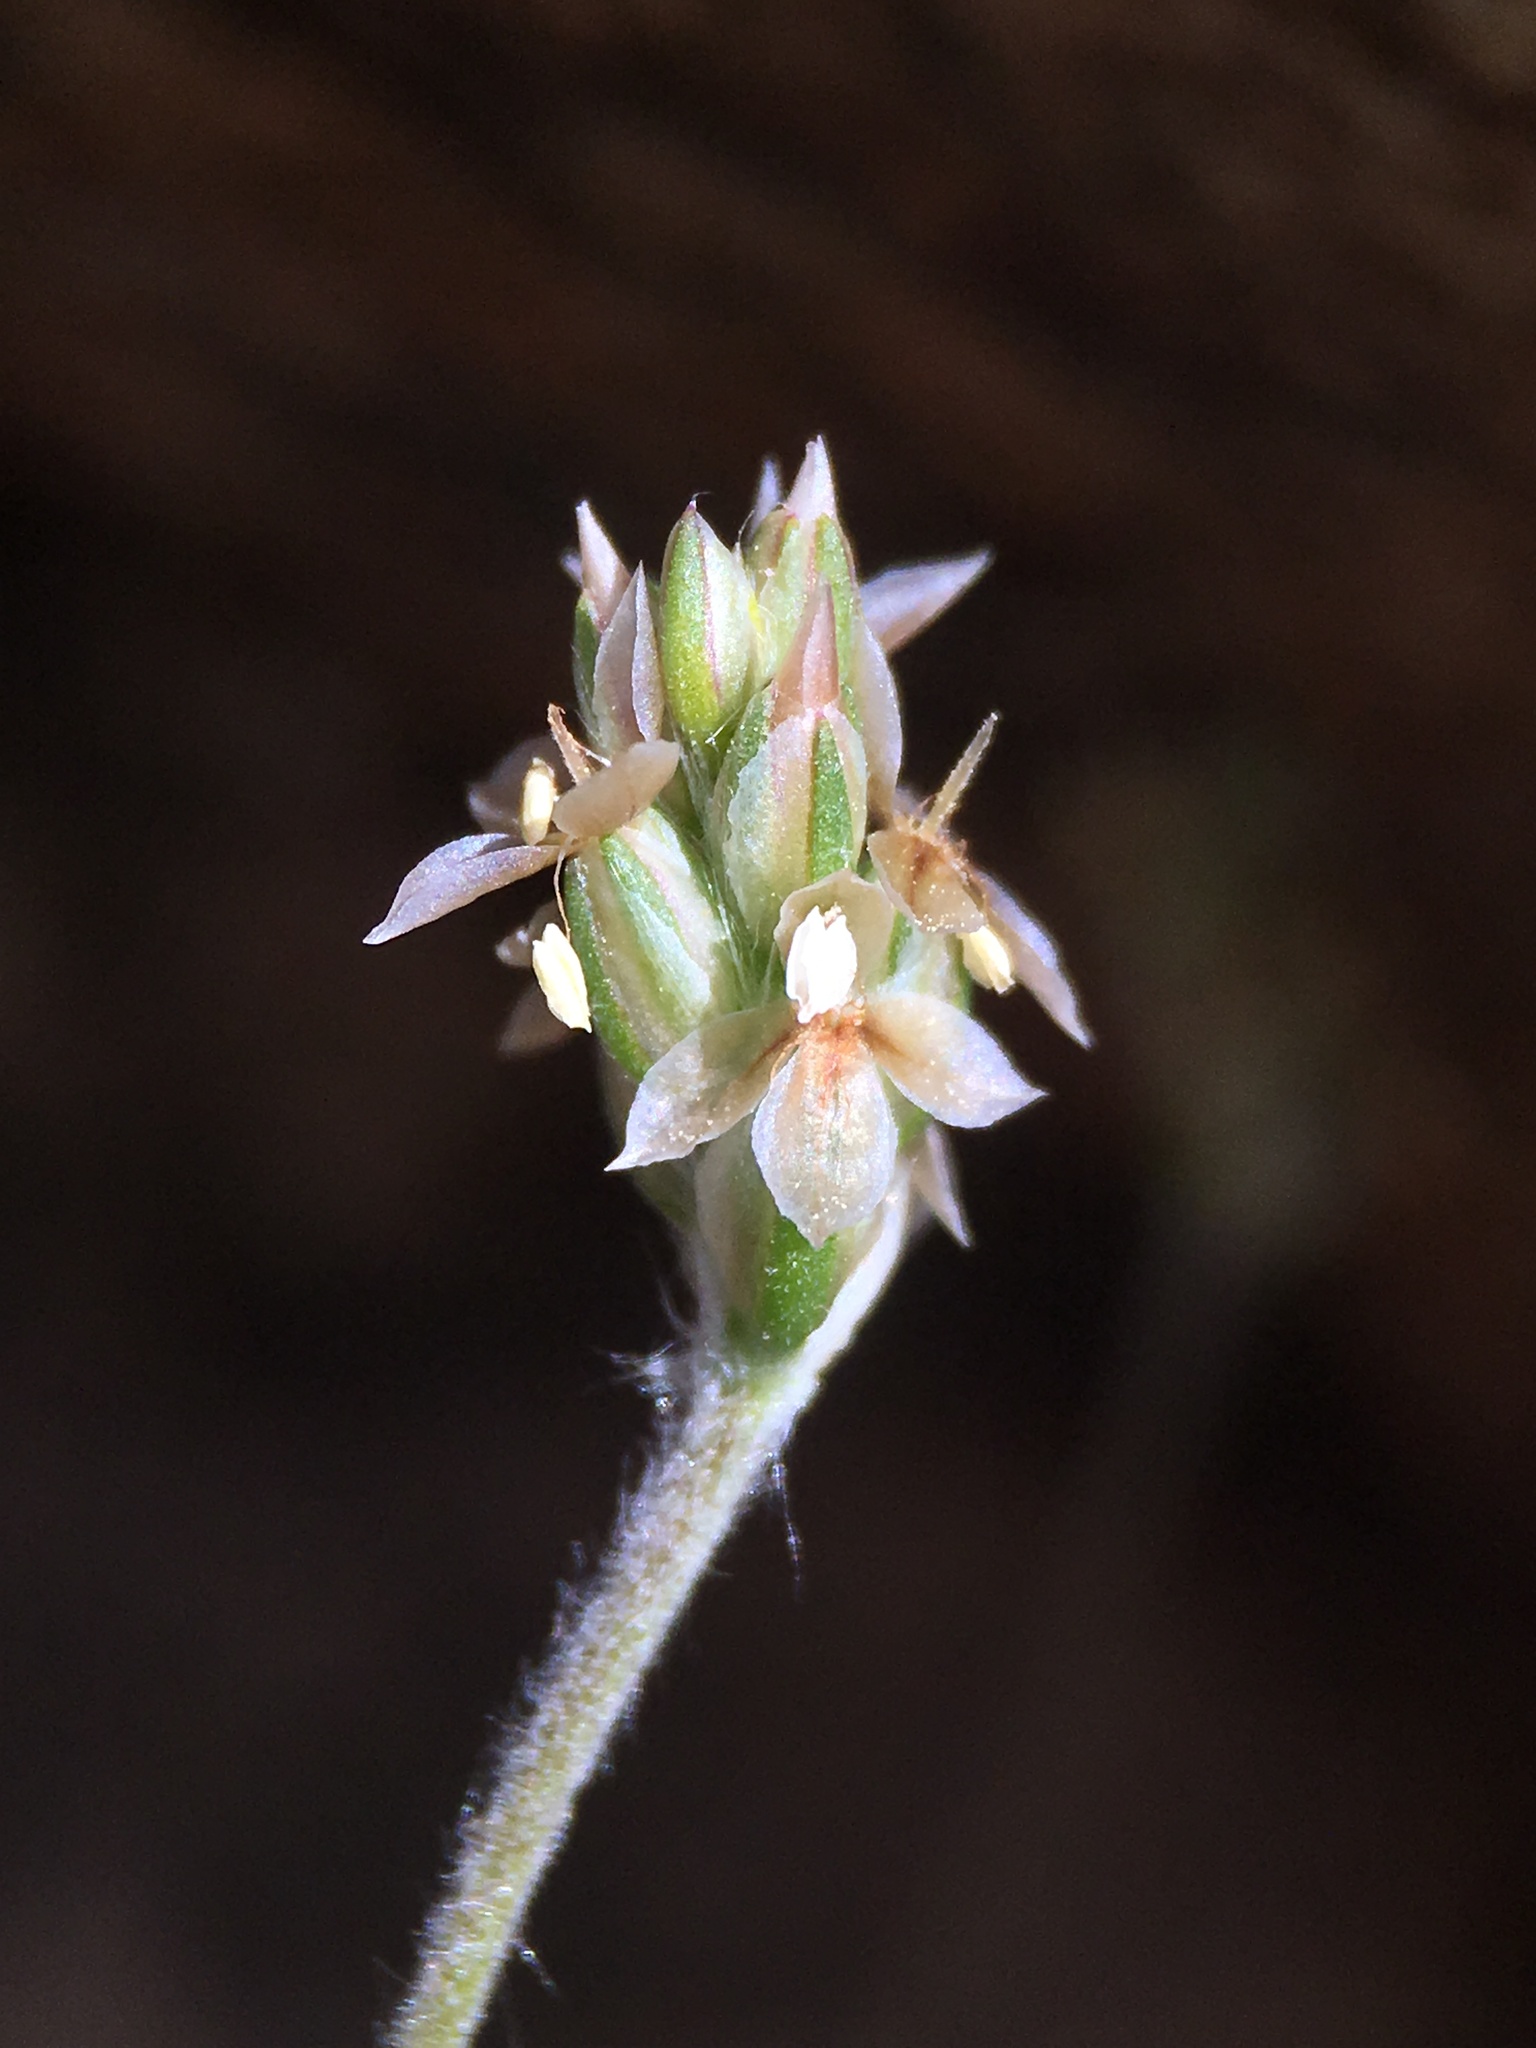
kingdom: Plantae
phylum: Tracheophyta
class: Magnoliopsida
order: Lamiales
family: Plantaginaceae
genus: Plantago
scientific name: Plantago ovata
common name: Blond plantain
